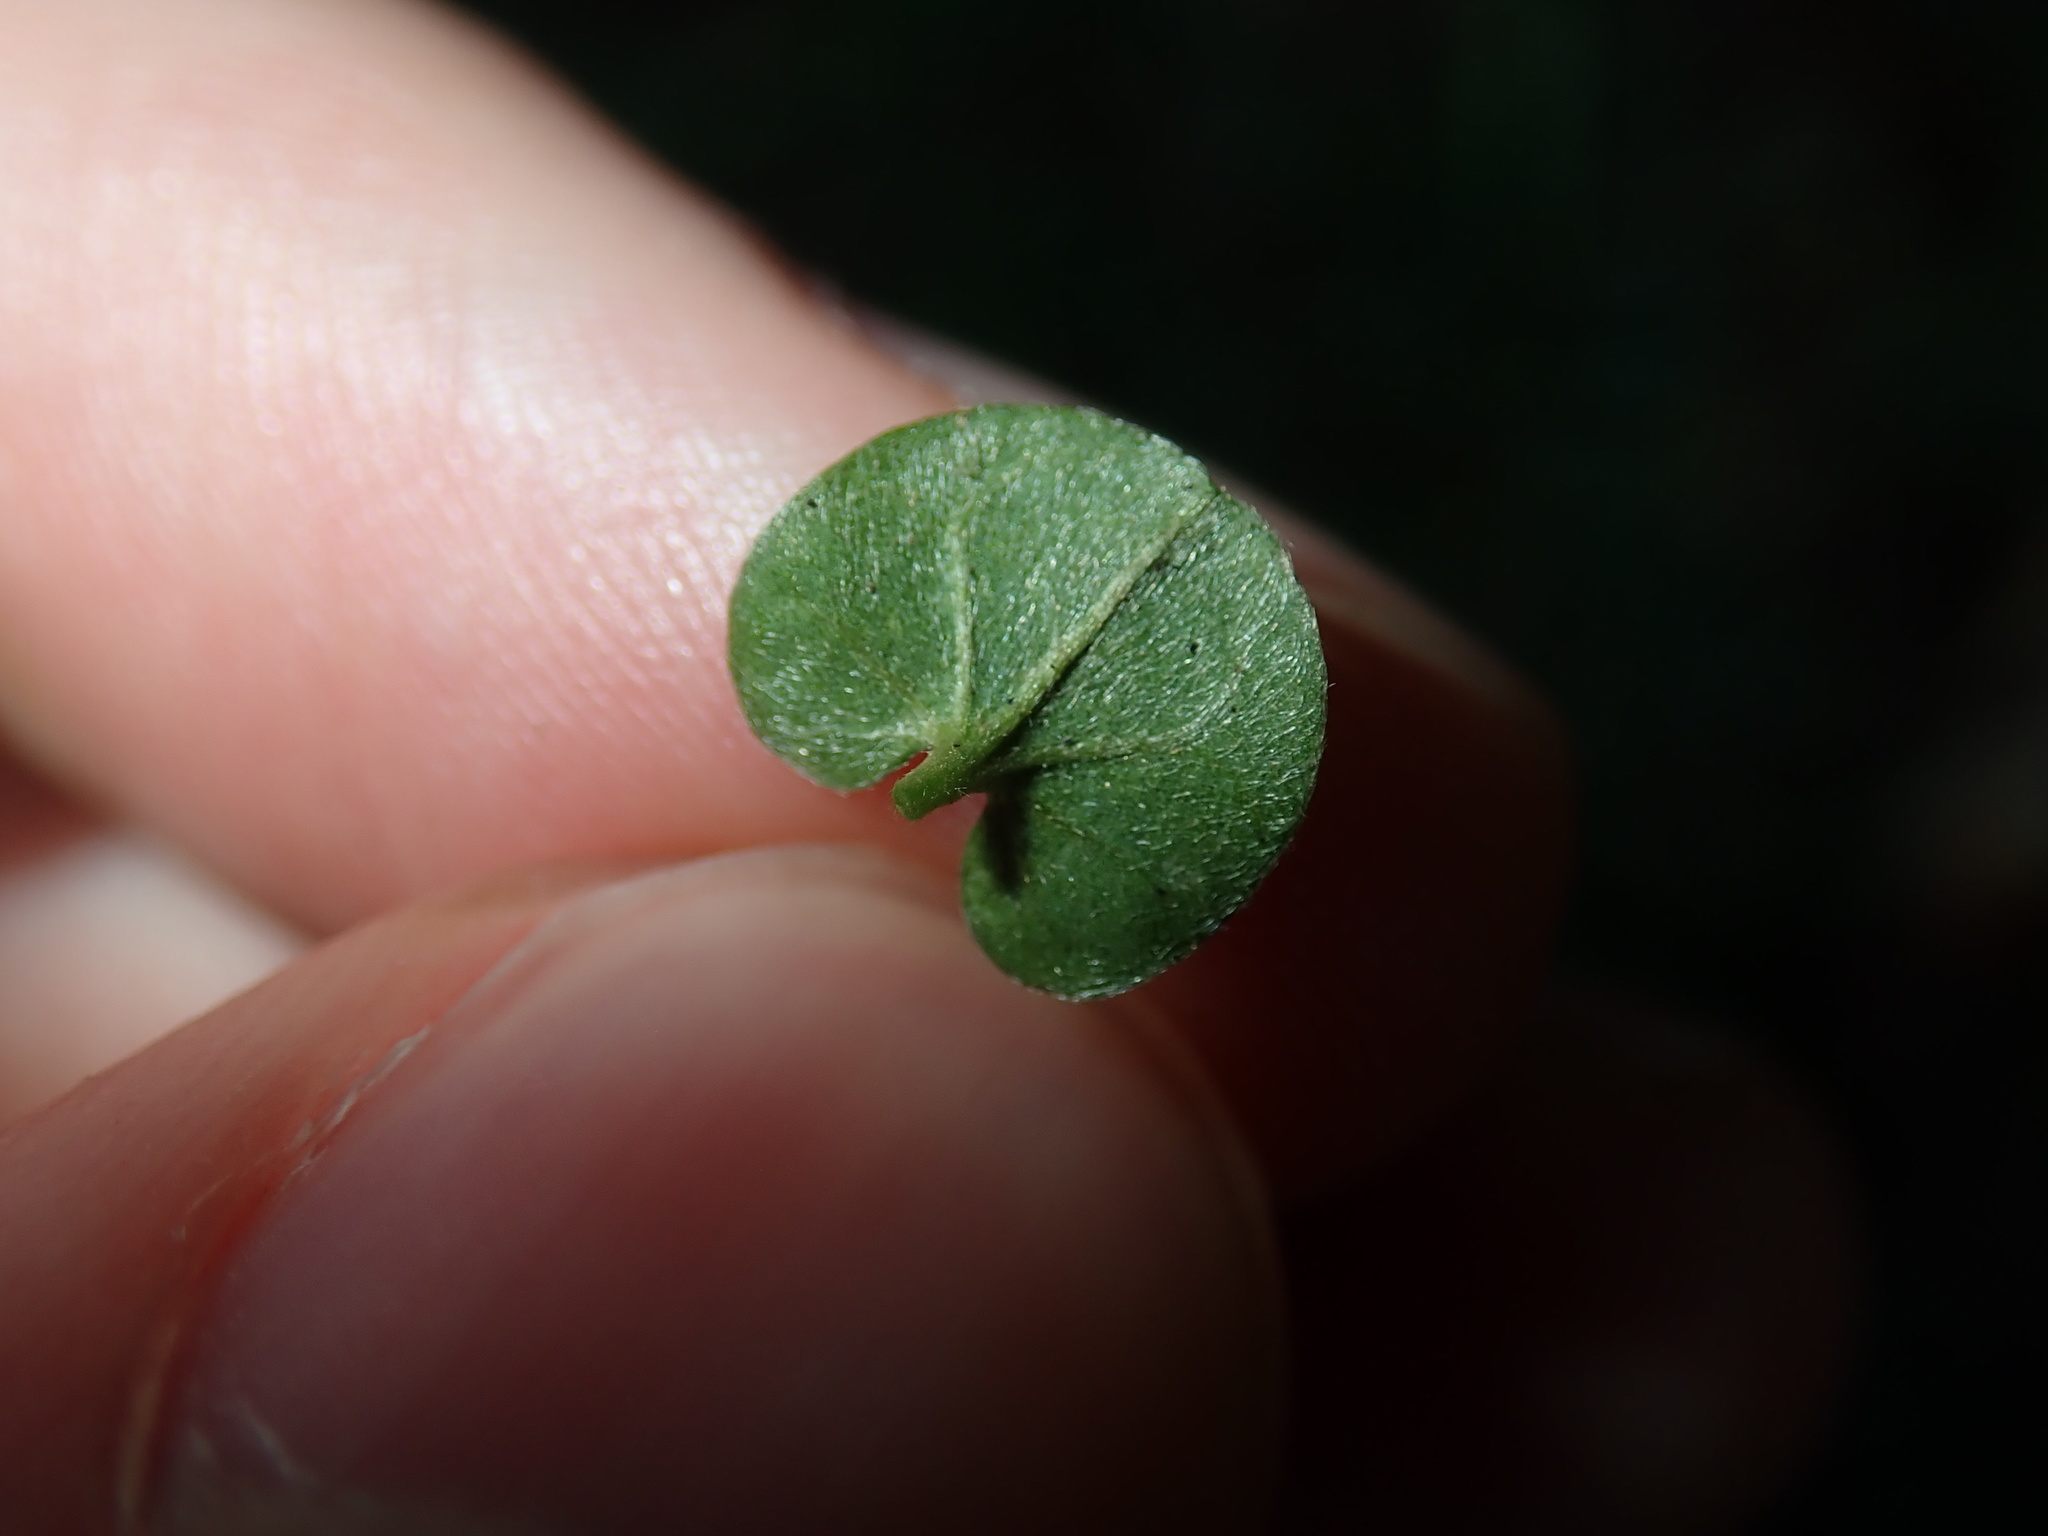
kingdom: Plantae
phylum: Tracheophyta
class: Magnoliopsida
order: Solanales
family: Convolvulaceae
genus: Dichondra
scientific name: Dichondra repens
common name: Kidneyweed
